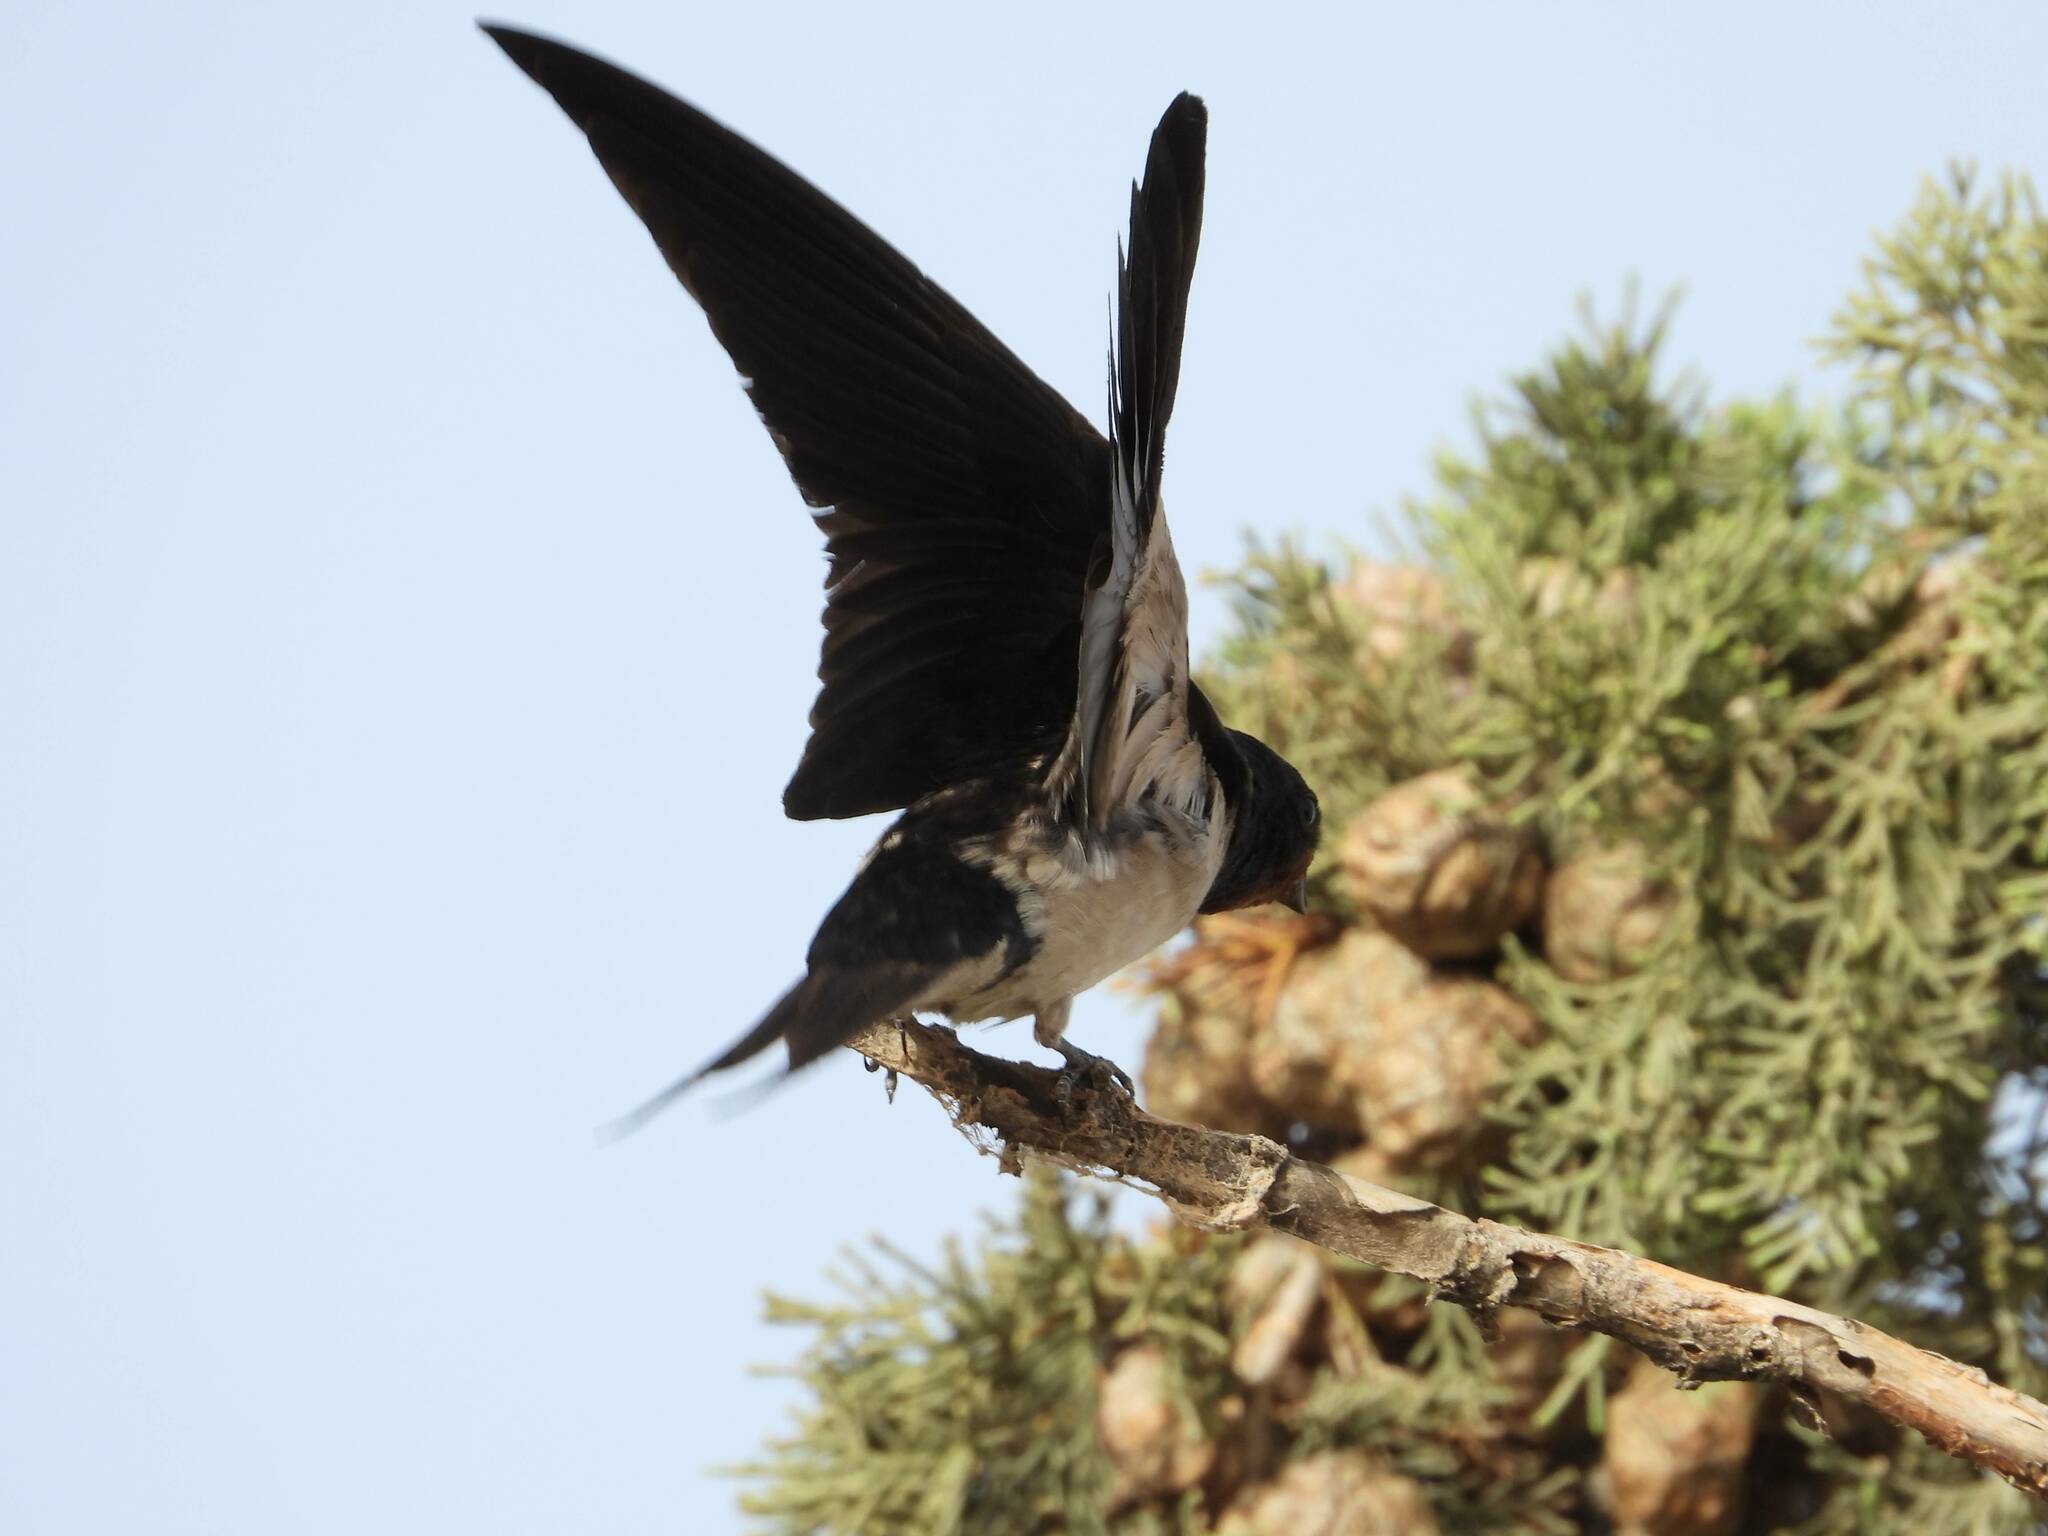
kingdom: Animalia
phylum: Chordata
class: Aves
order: Passeriformes
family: Hirundinidae
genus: Hirundo
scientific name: Hirundo rustica
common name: Barn swallow
